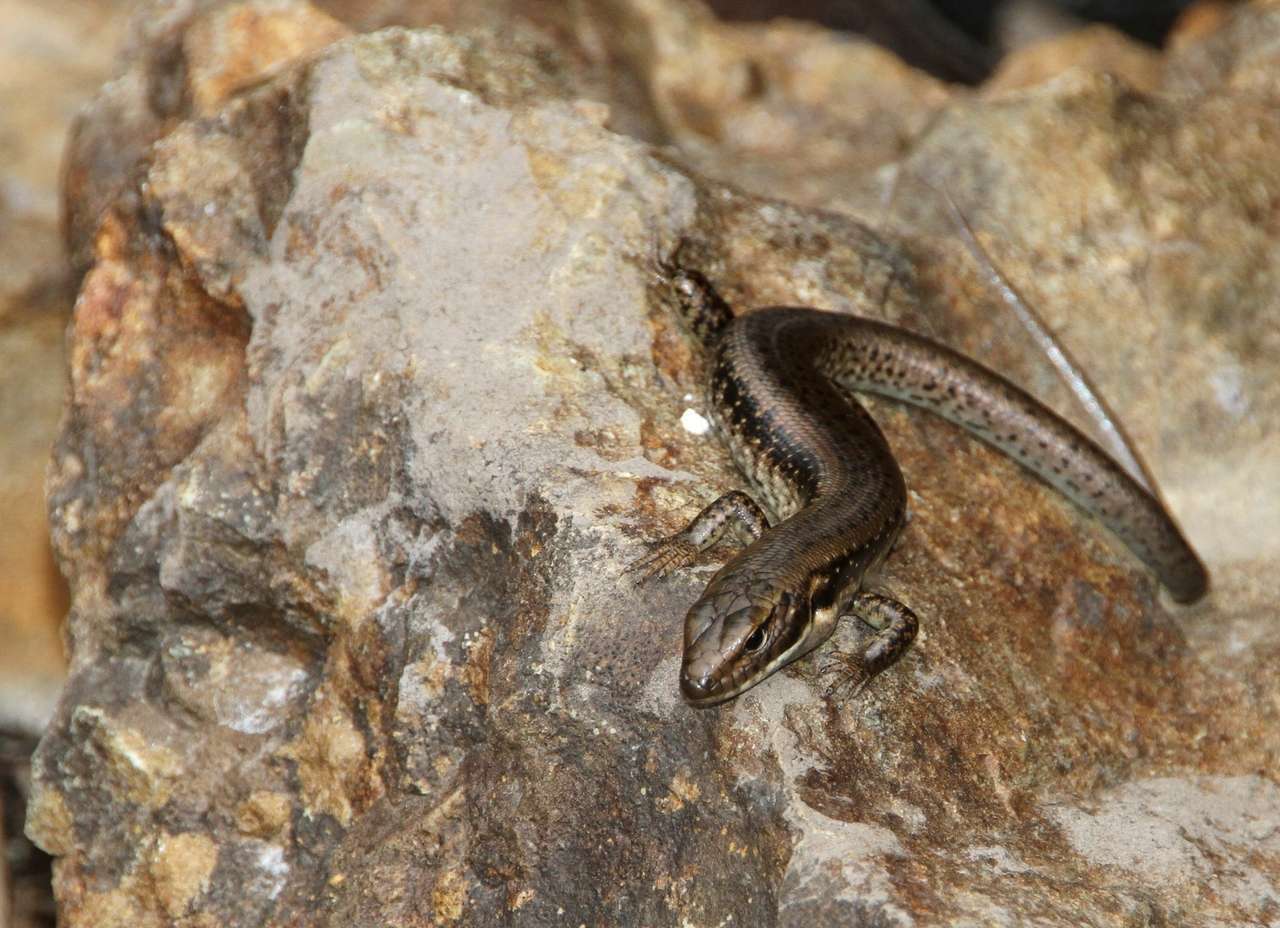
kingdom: Animalia
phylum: Chordata
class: Squamata
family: Scincidae
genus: Eulamprus
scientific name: Eulamprus tympanum
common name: Cool-temperate water-skink
